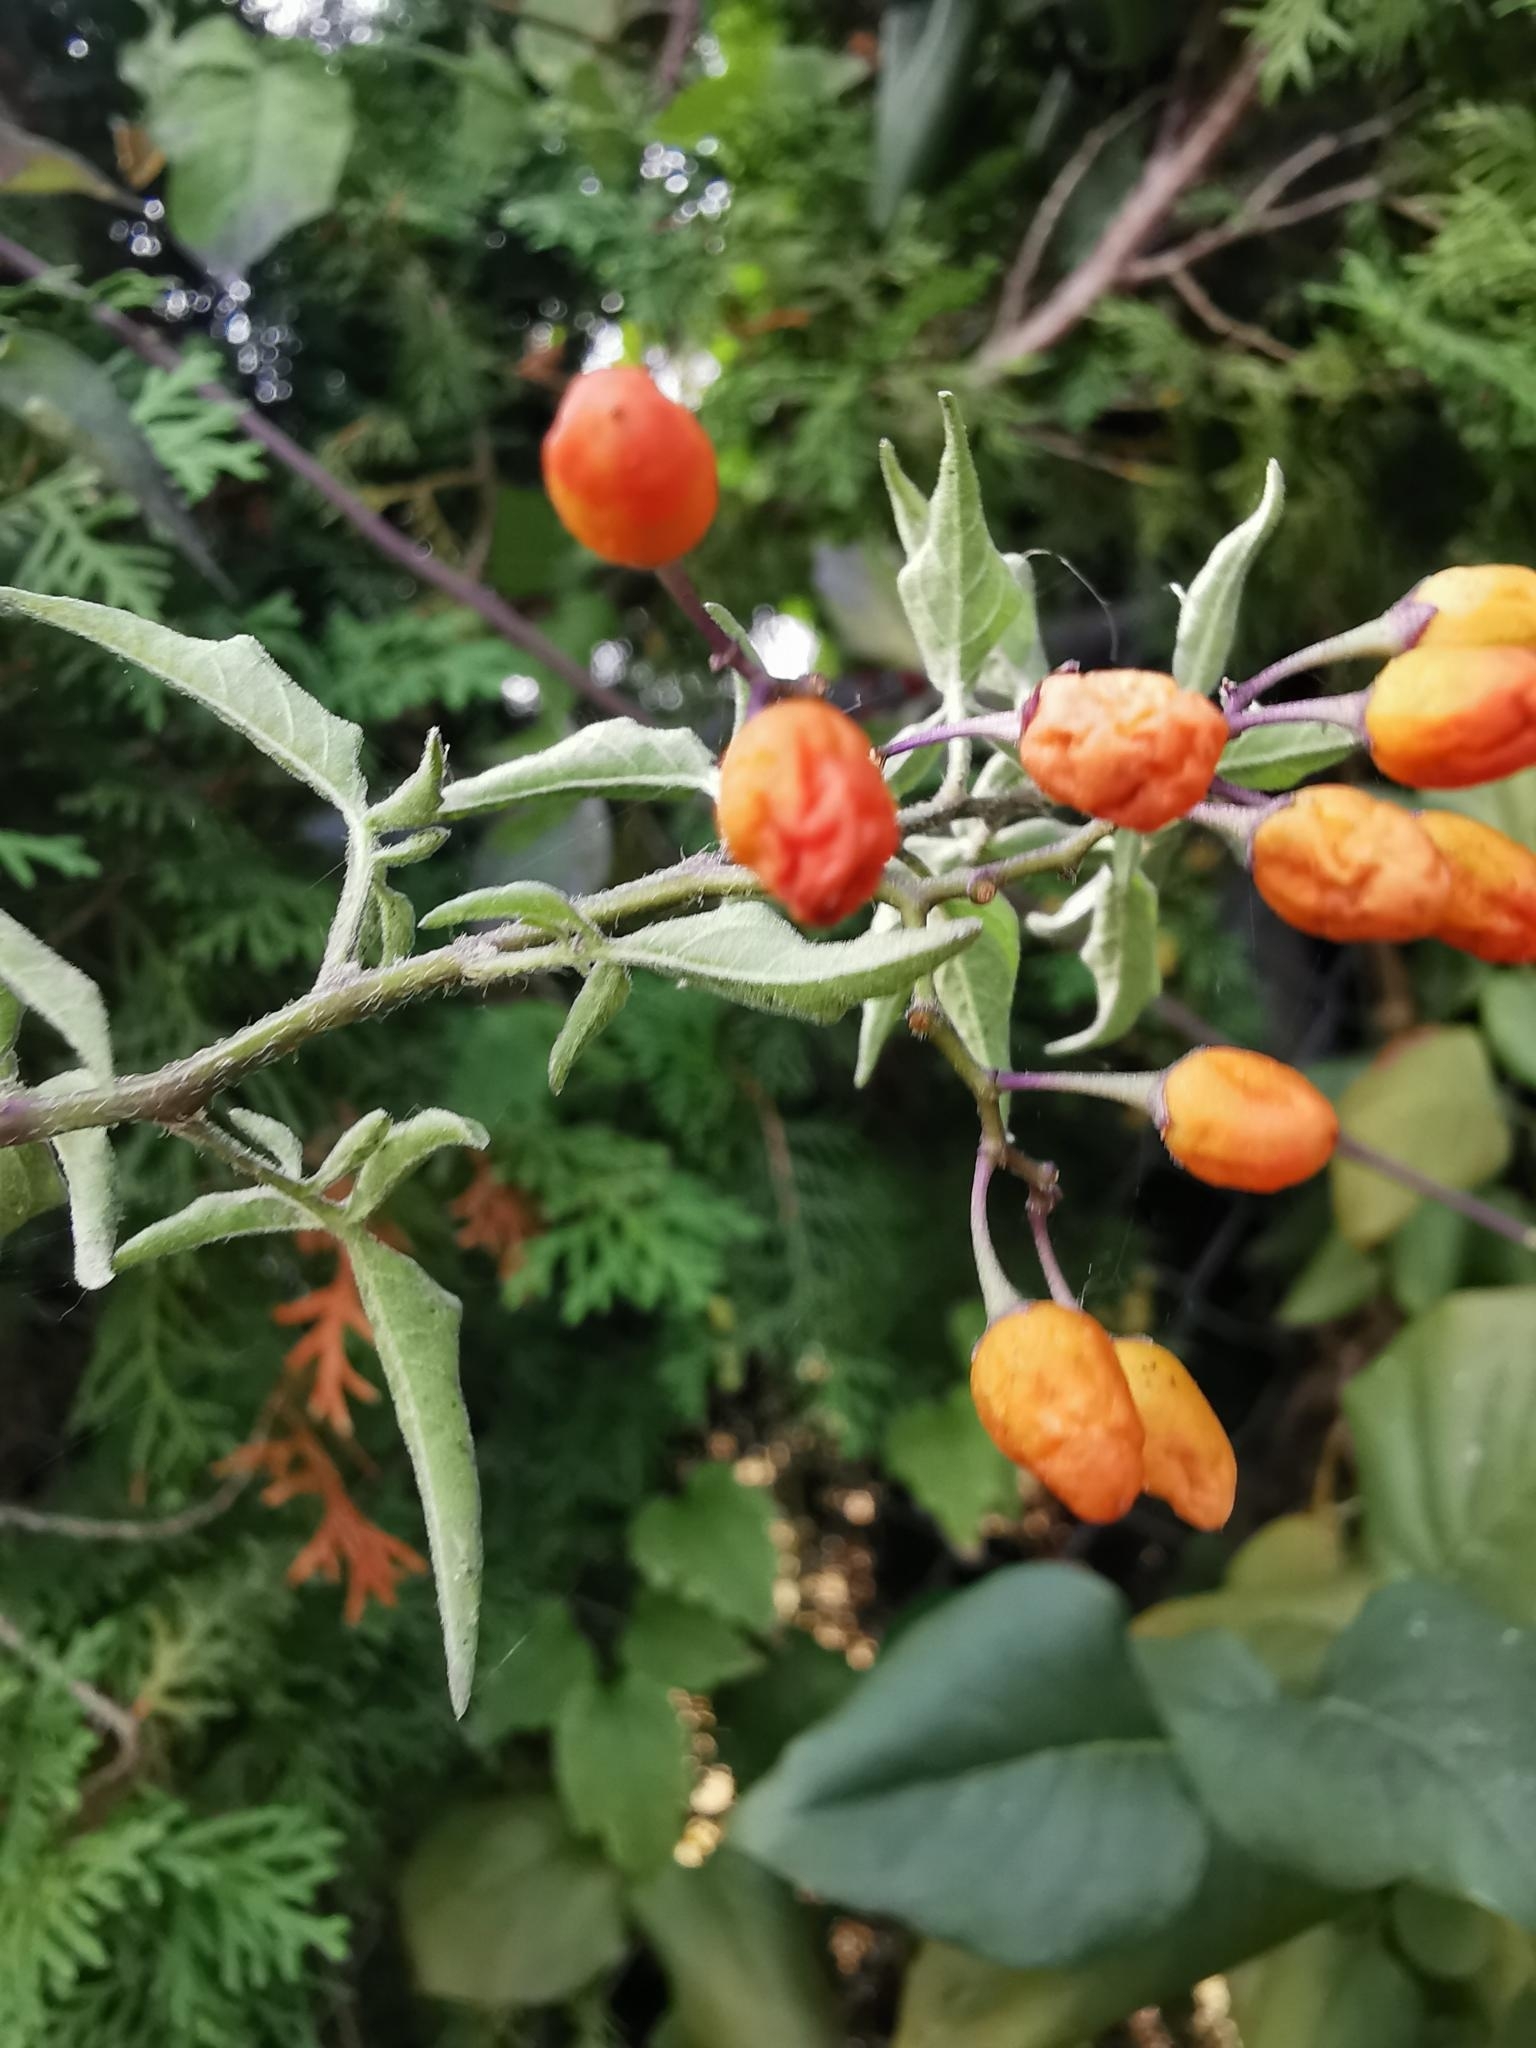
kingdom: Plantae
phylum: Tracheophyta
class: Magnoliopsida
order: Solanales
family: Solanaceae
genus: Solanum
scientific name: Solanum dulcamara
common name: Climbing nightshade
